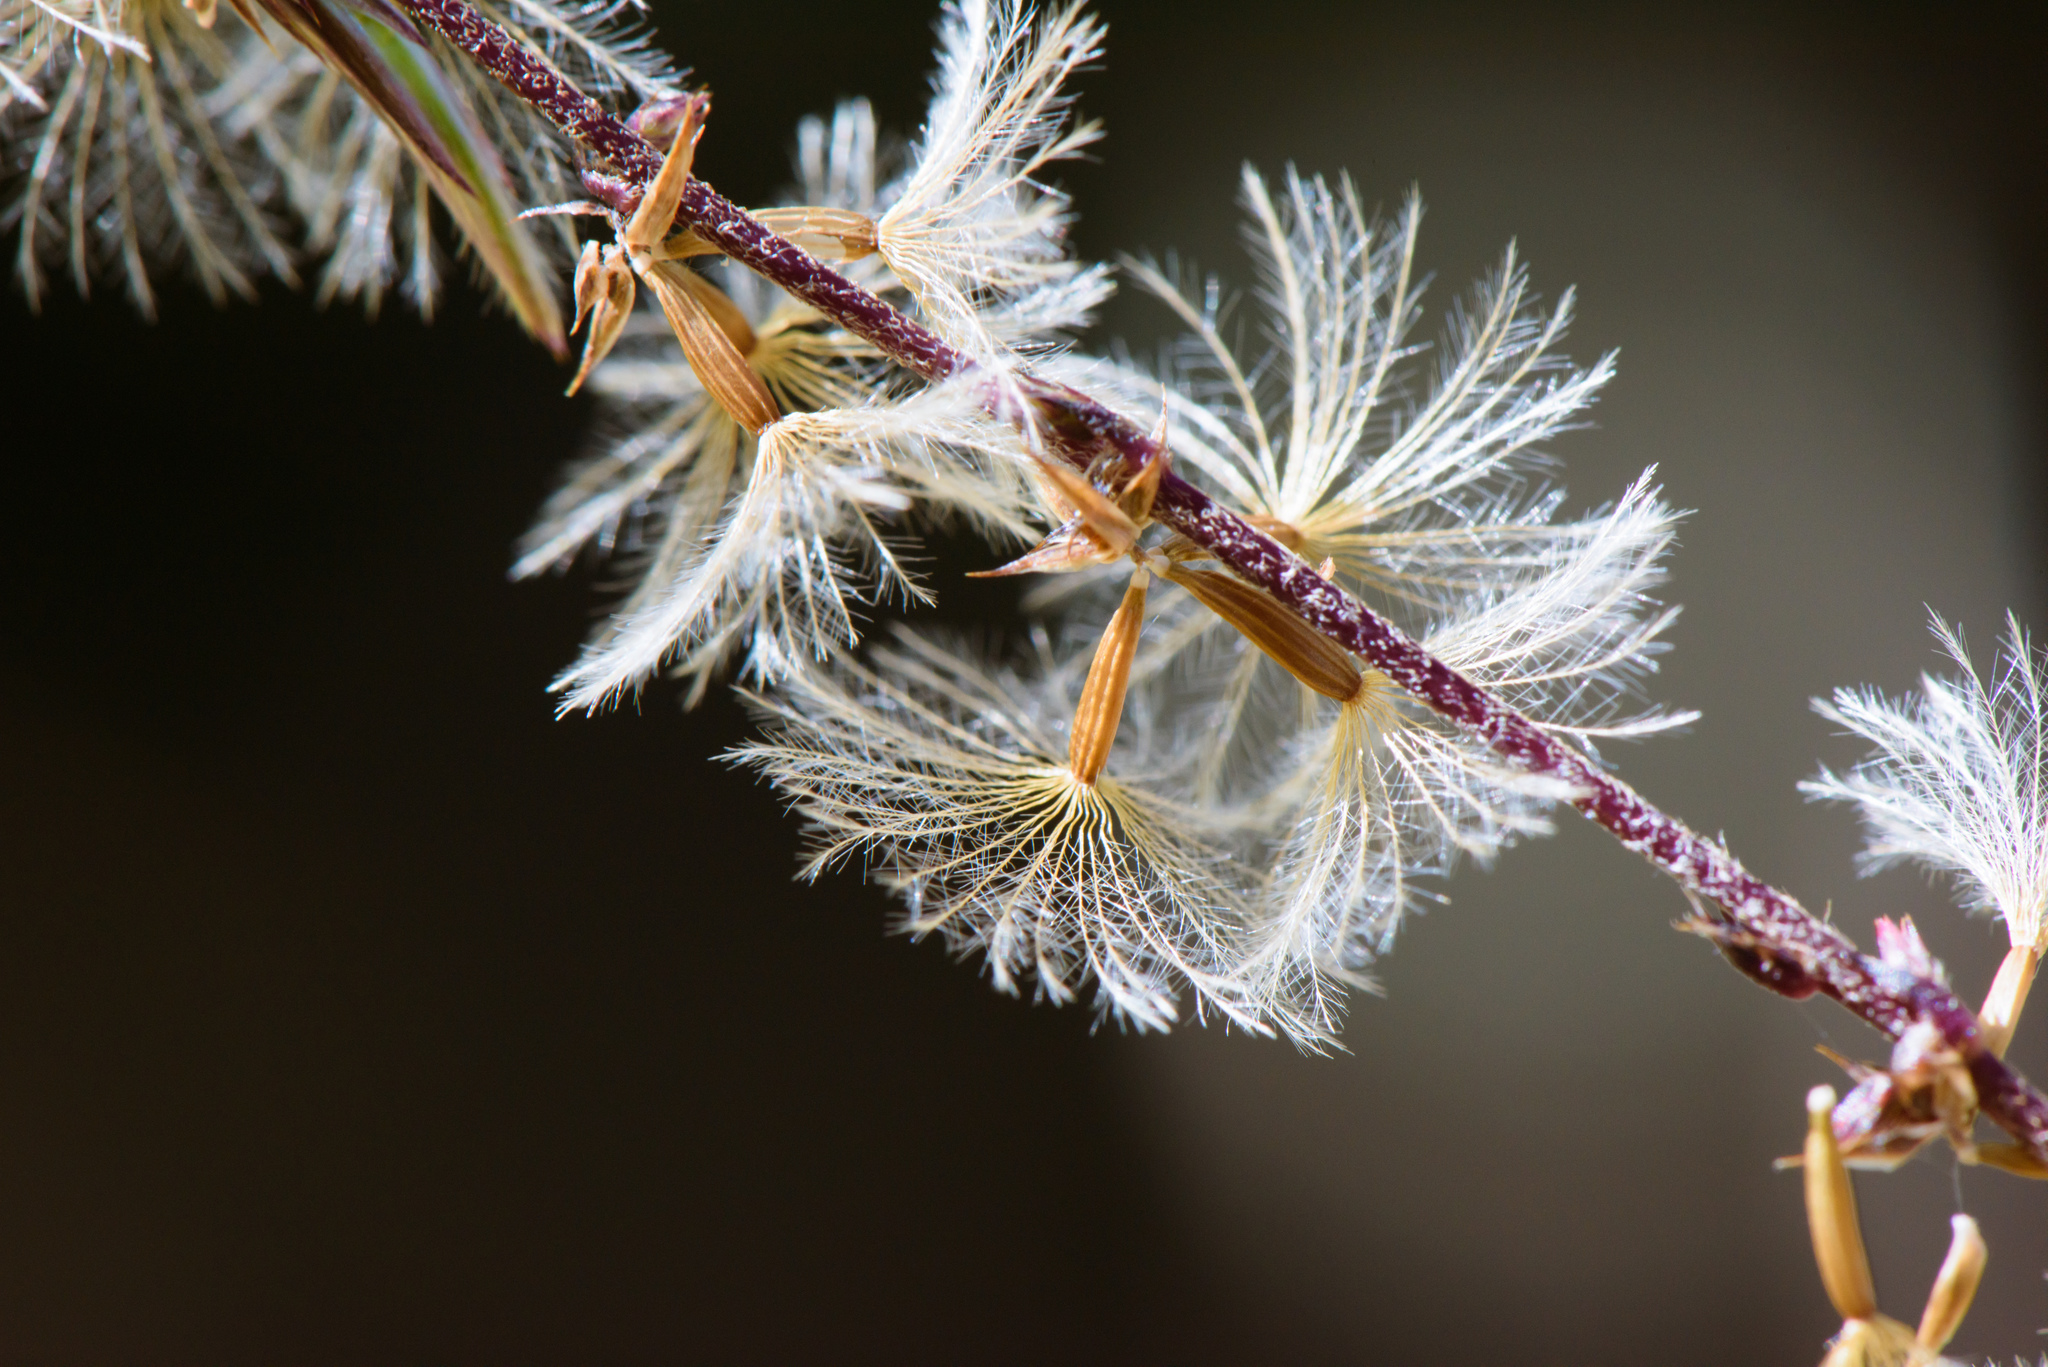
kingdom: Plantae
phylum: Tracheophyta
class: Magnoliopsida
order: Asterales
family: Asteraceae
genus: Ainsliaea
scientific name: Ainsliaea henryi
